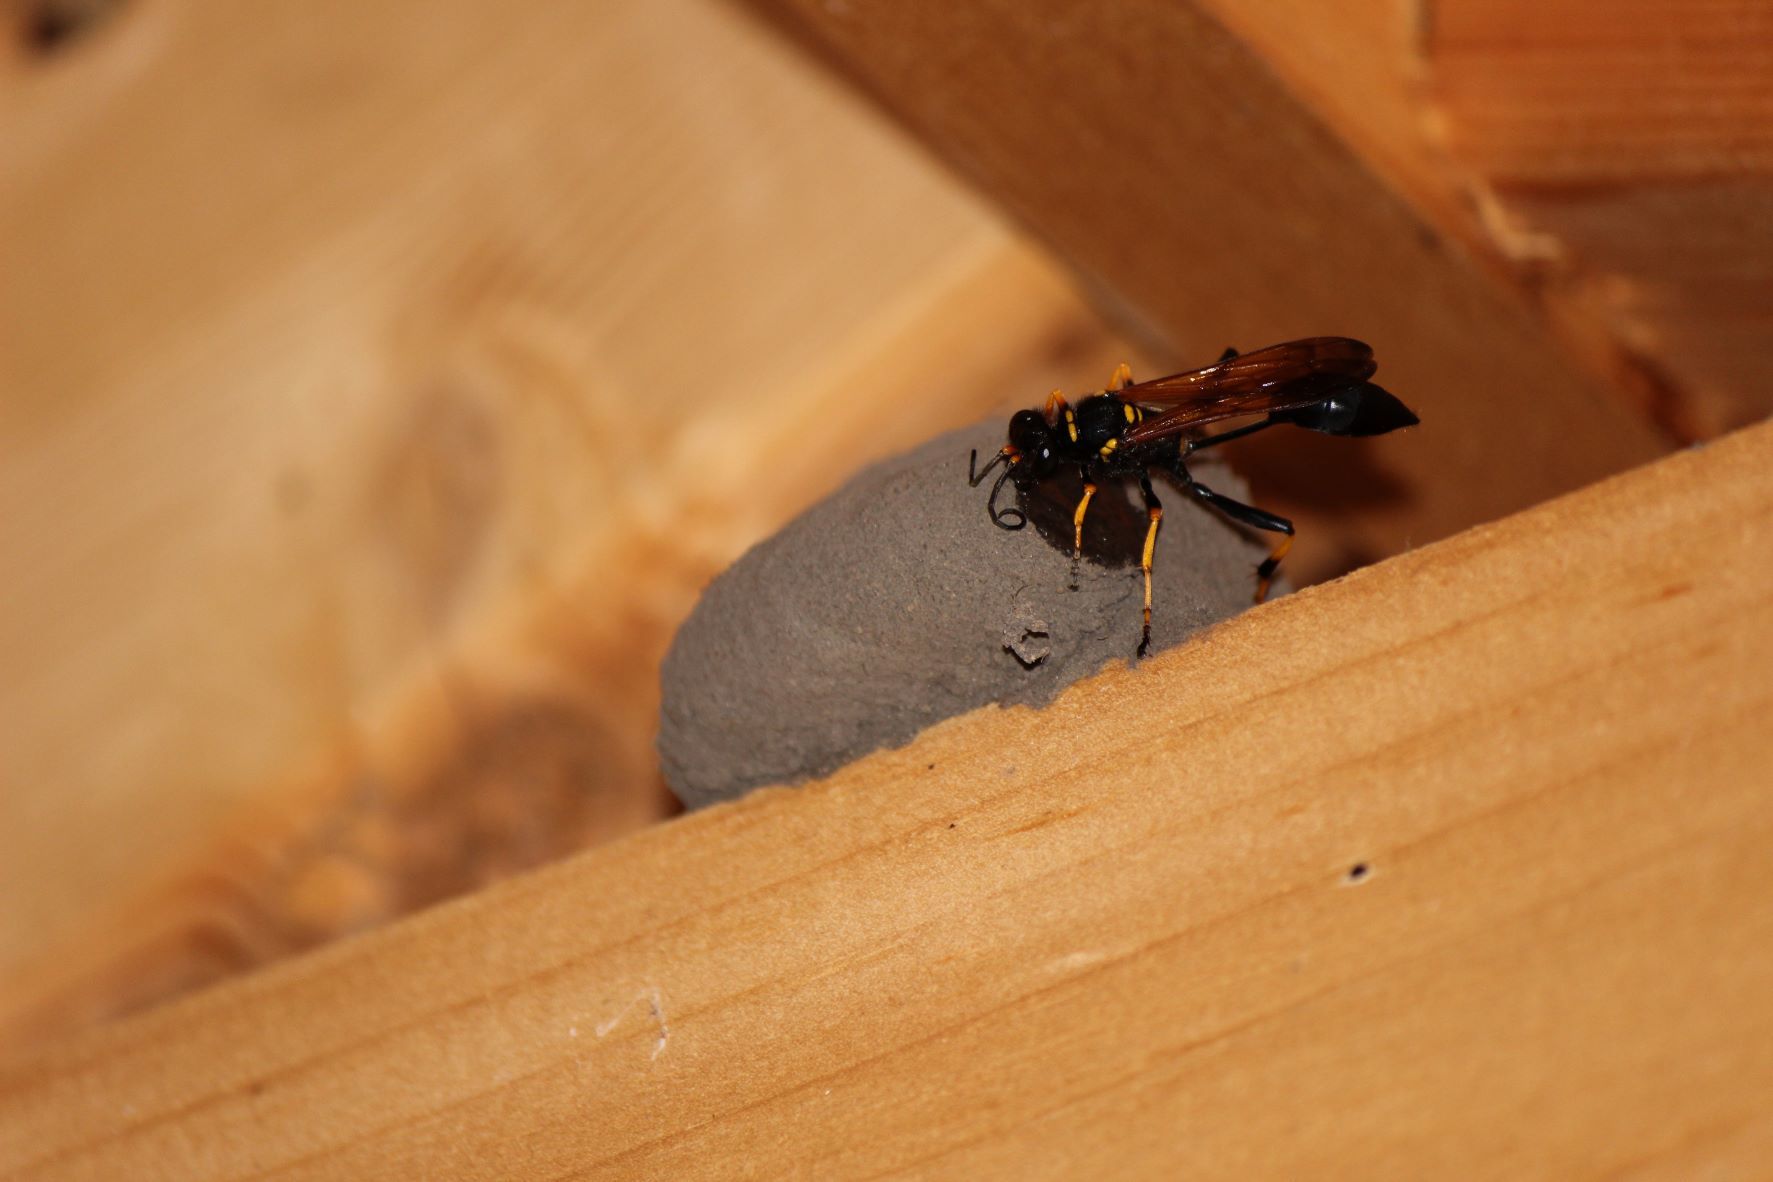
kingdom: Animalia
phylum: Arthropoda
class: Insecta
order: Hymenoptera
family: Sphecidae
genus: Sceliphron
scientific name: Sceliphron caementarium
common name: Mud dauber
